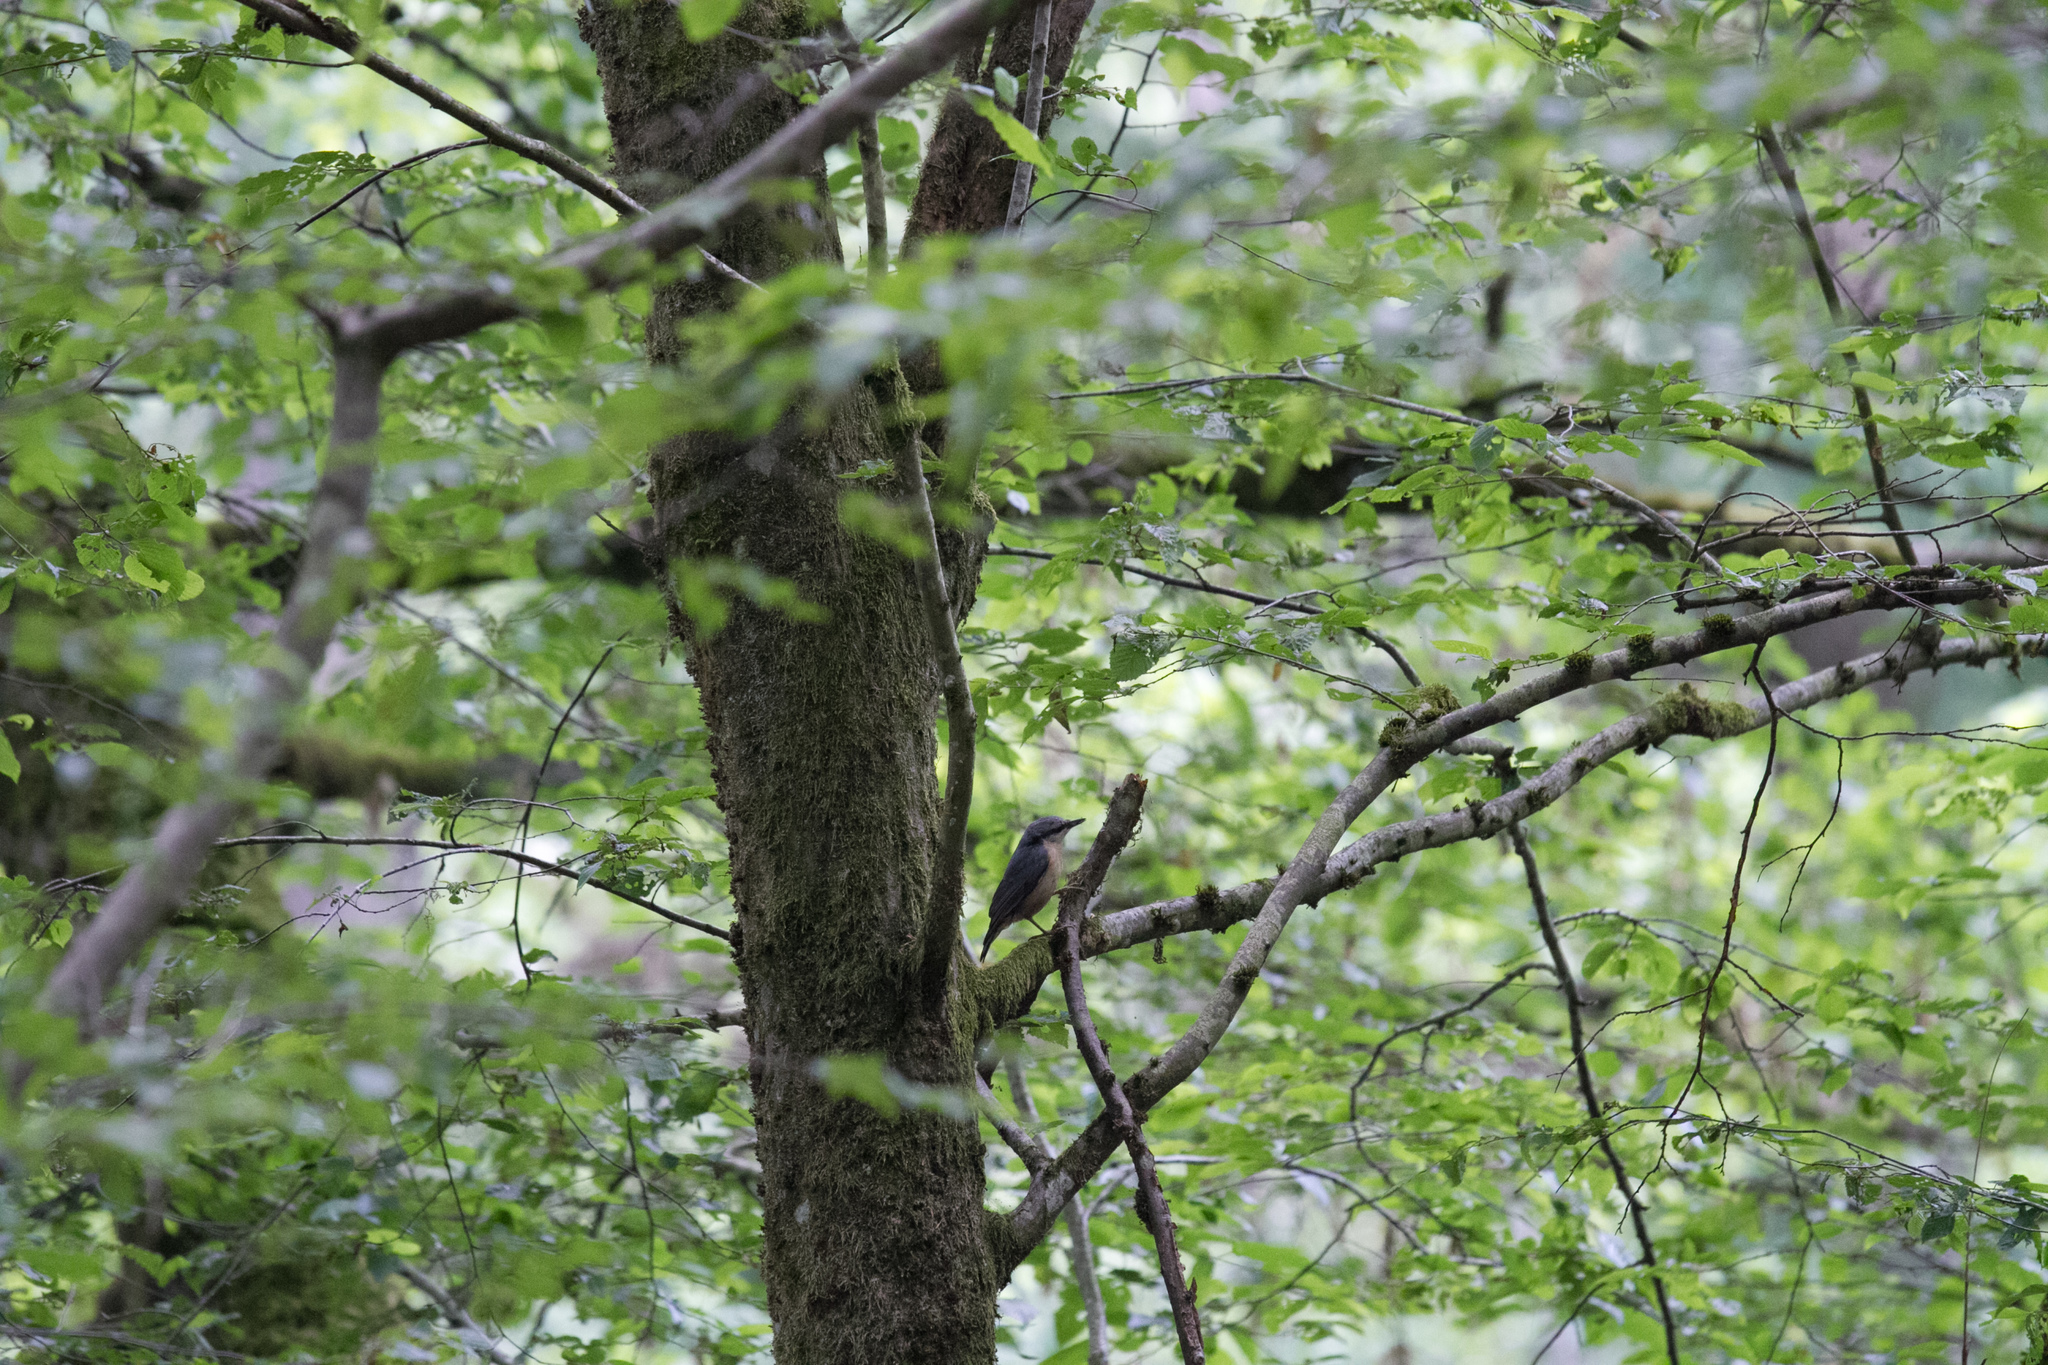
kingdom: Animalia
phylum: Chordata
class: Aves
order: Passeriformes
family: Sittidae
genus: Sitta
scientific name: Sitta europaea
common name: Eurasian nuthatch
